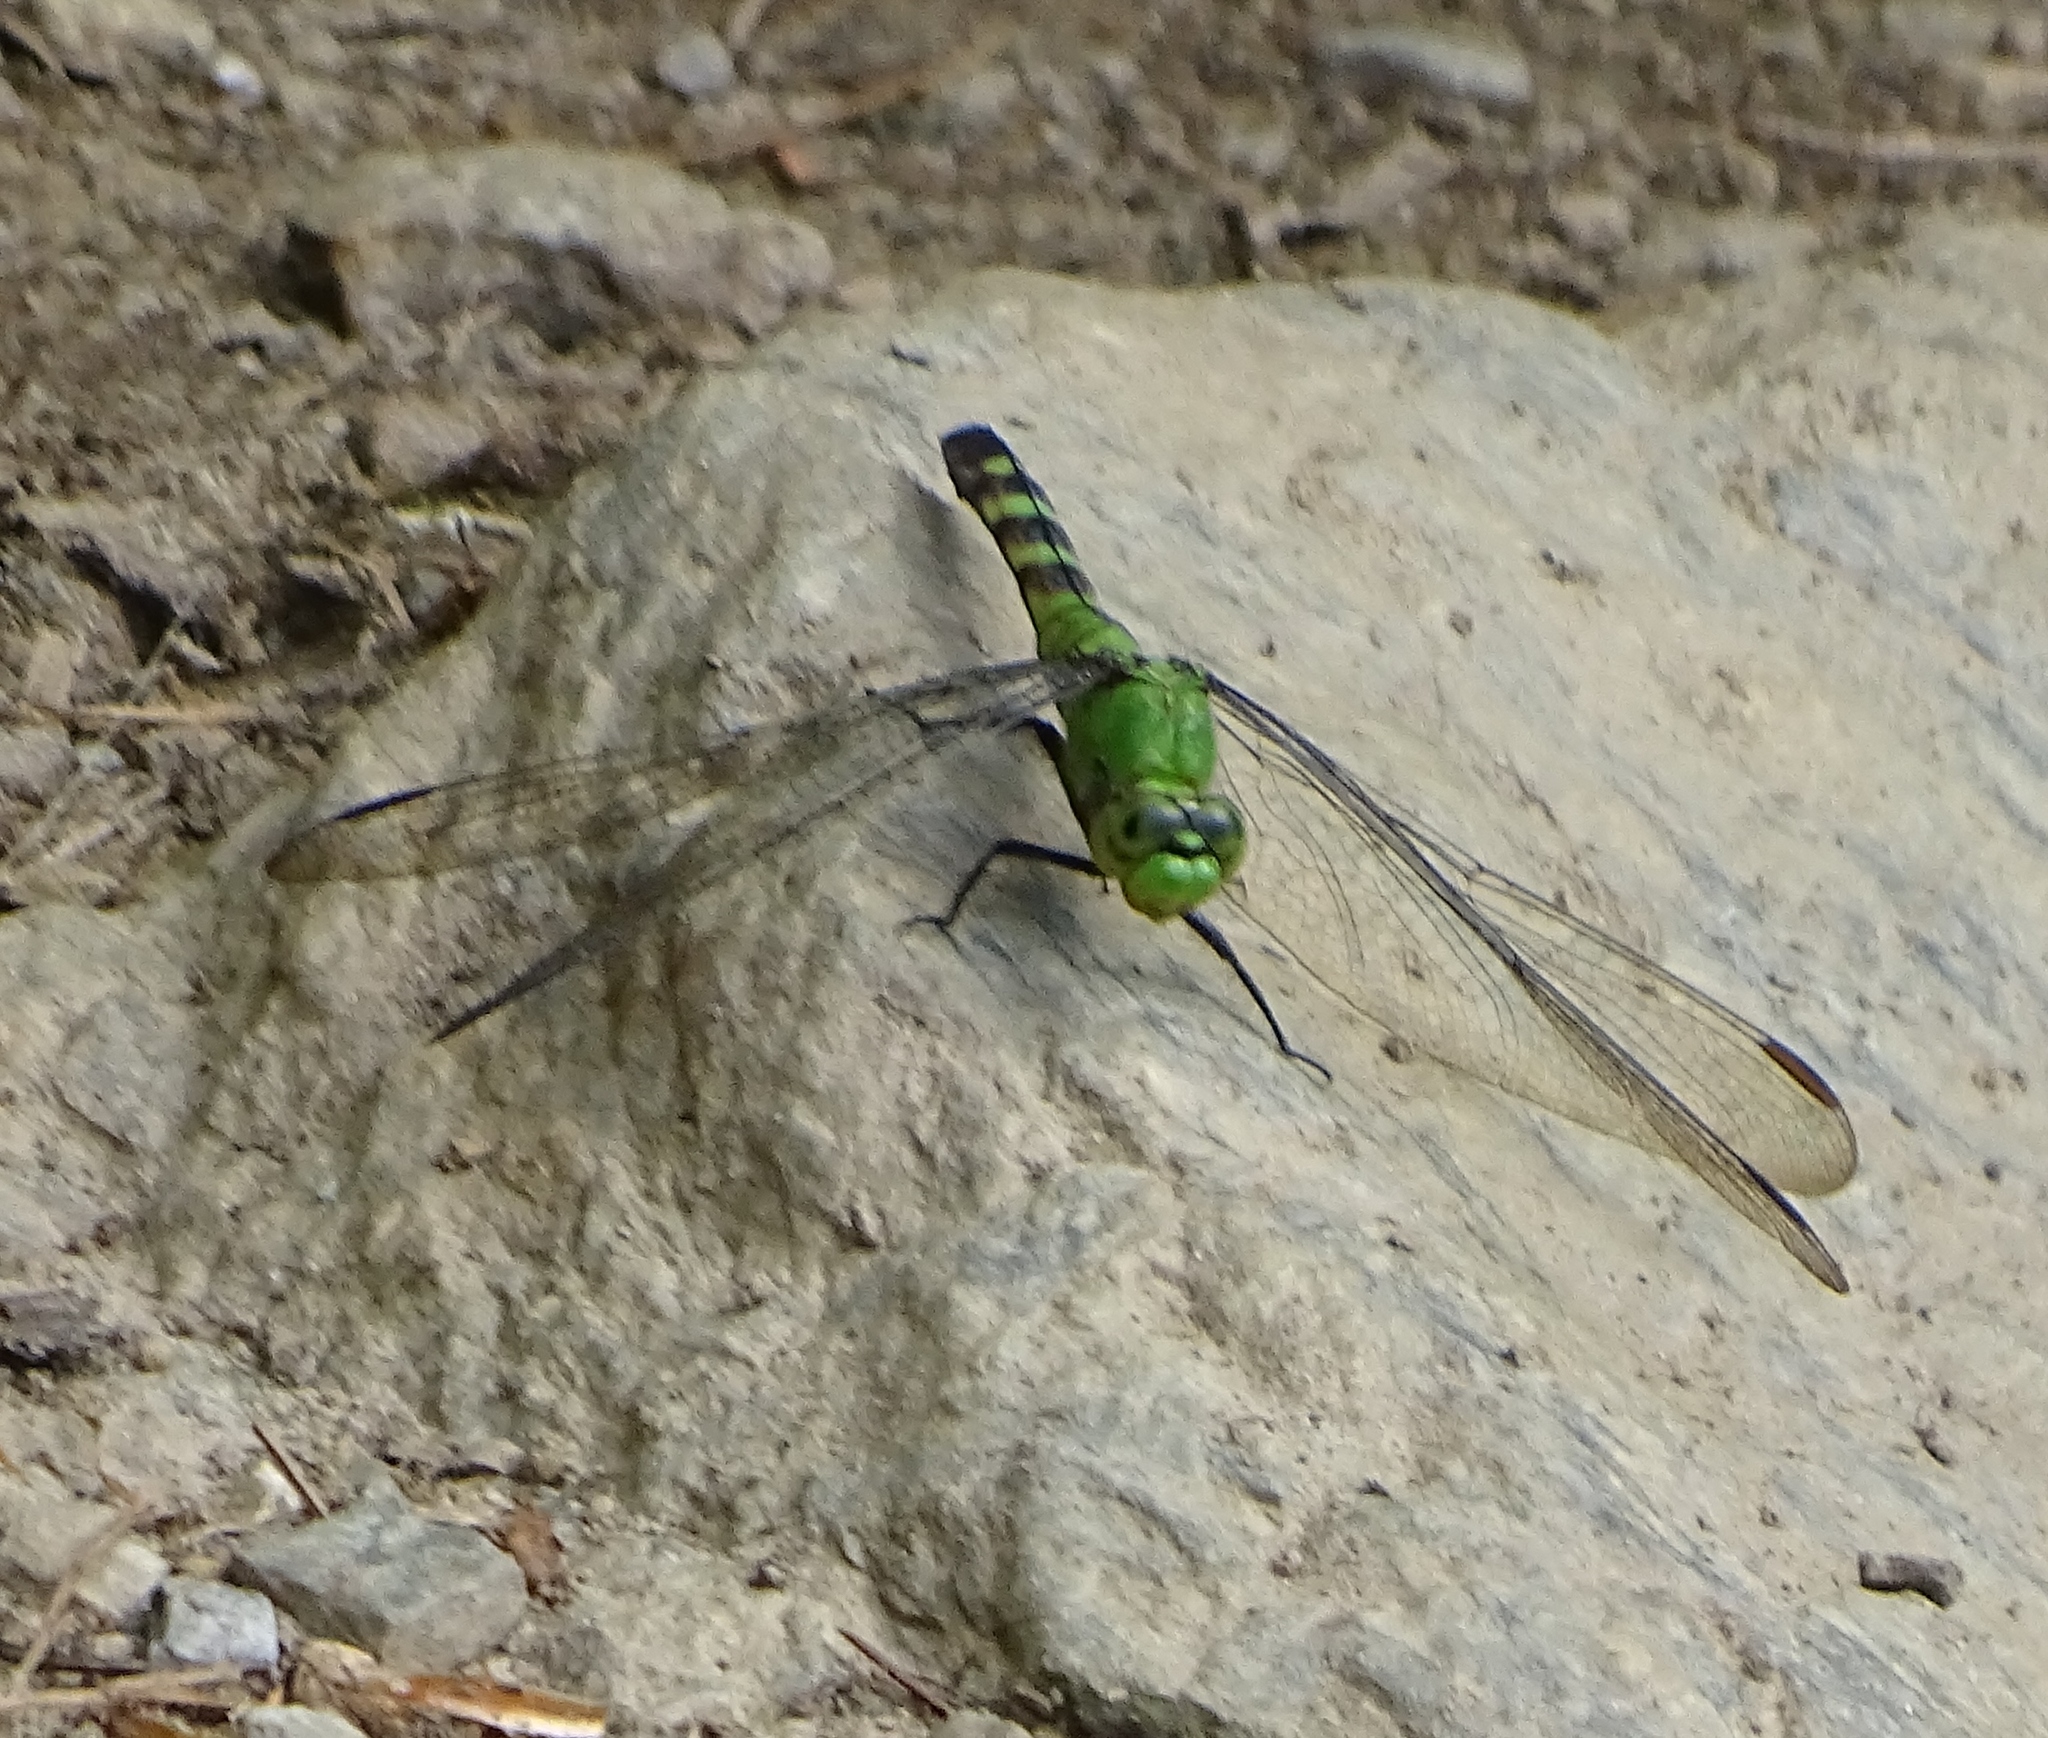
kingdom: Animalia
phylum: Arthropoda
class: Insecta
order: Odonata
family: Libellulidae
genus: Erythemis
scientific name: Erythemis simplicicollis
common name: Eastern pondhawk
